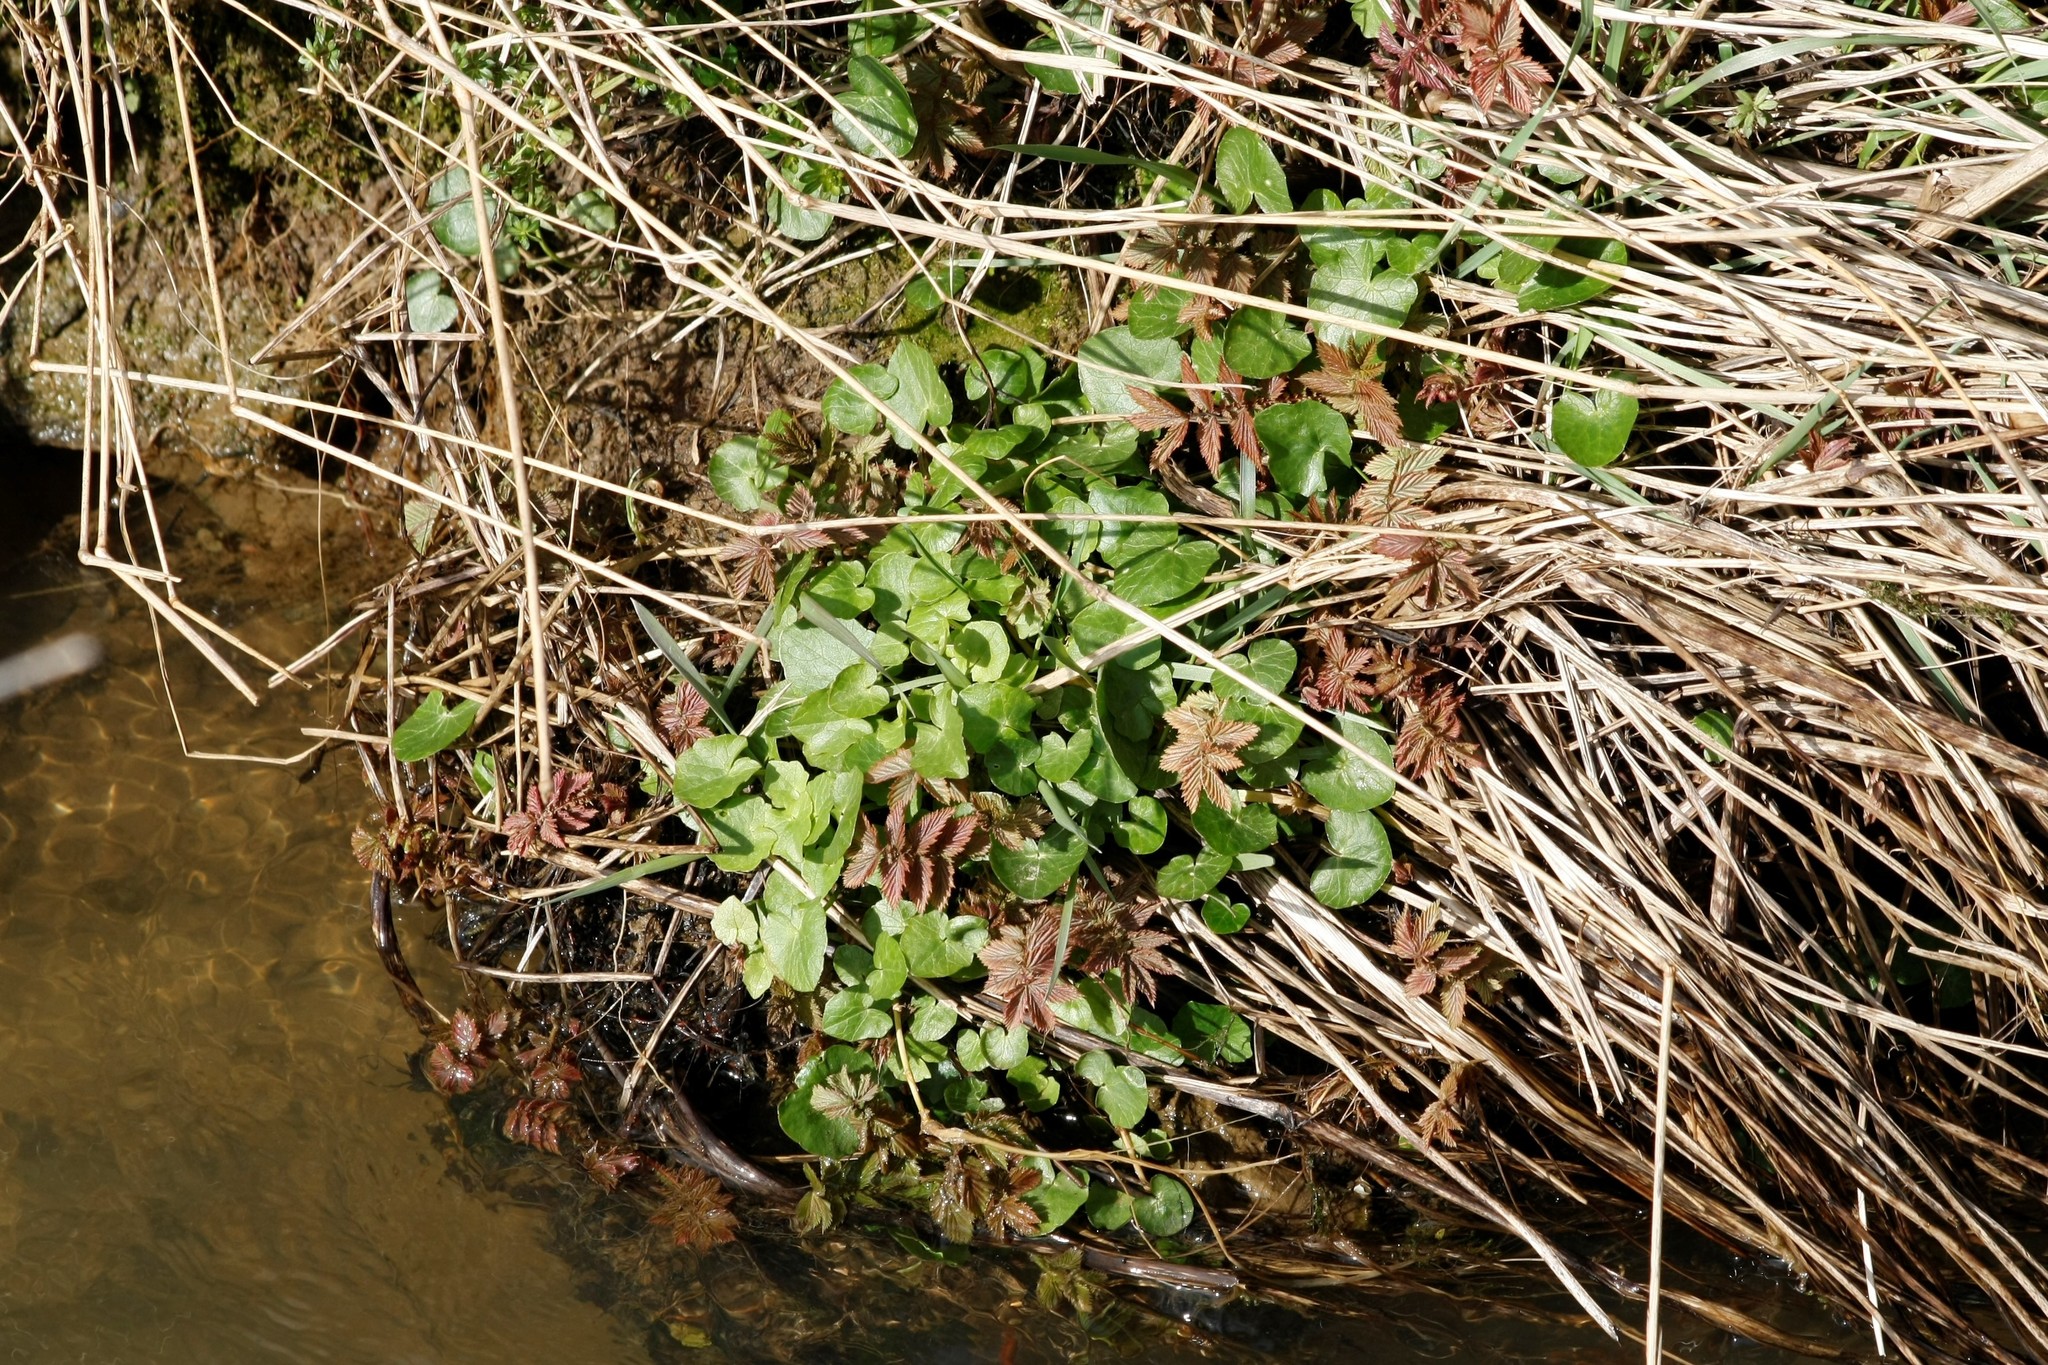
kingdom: Plantae
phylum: Tracheophyta
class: Magnoliopsida
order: Ranunculales
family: Ranunculaceae
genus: Ficaria
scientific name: Ficaria verna
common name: Lesser celandine
